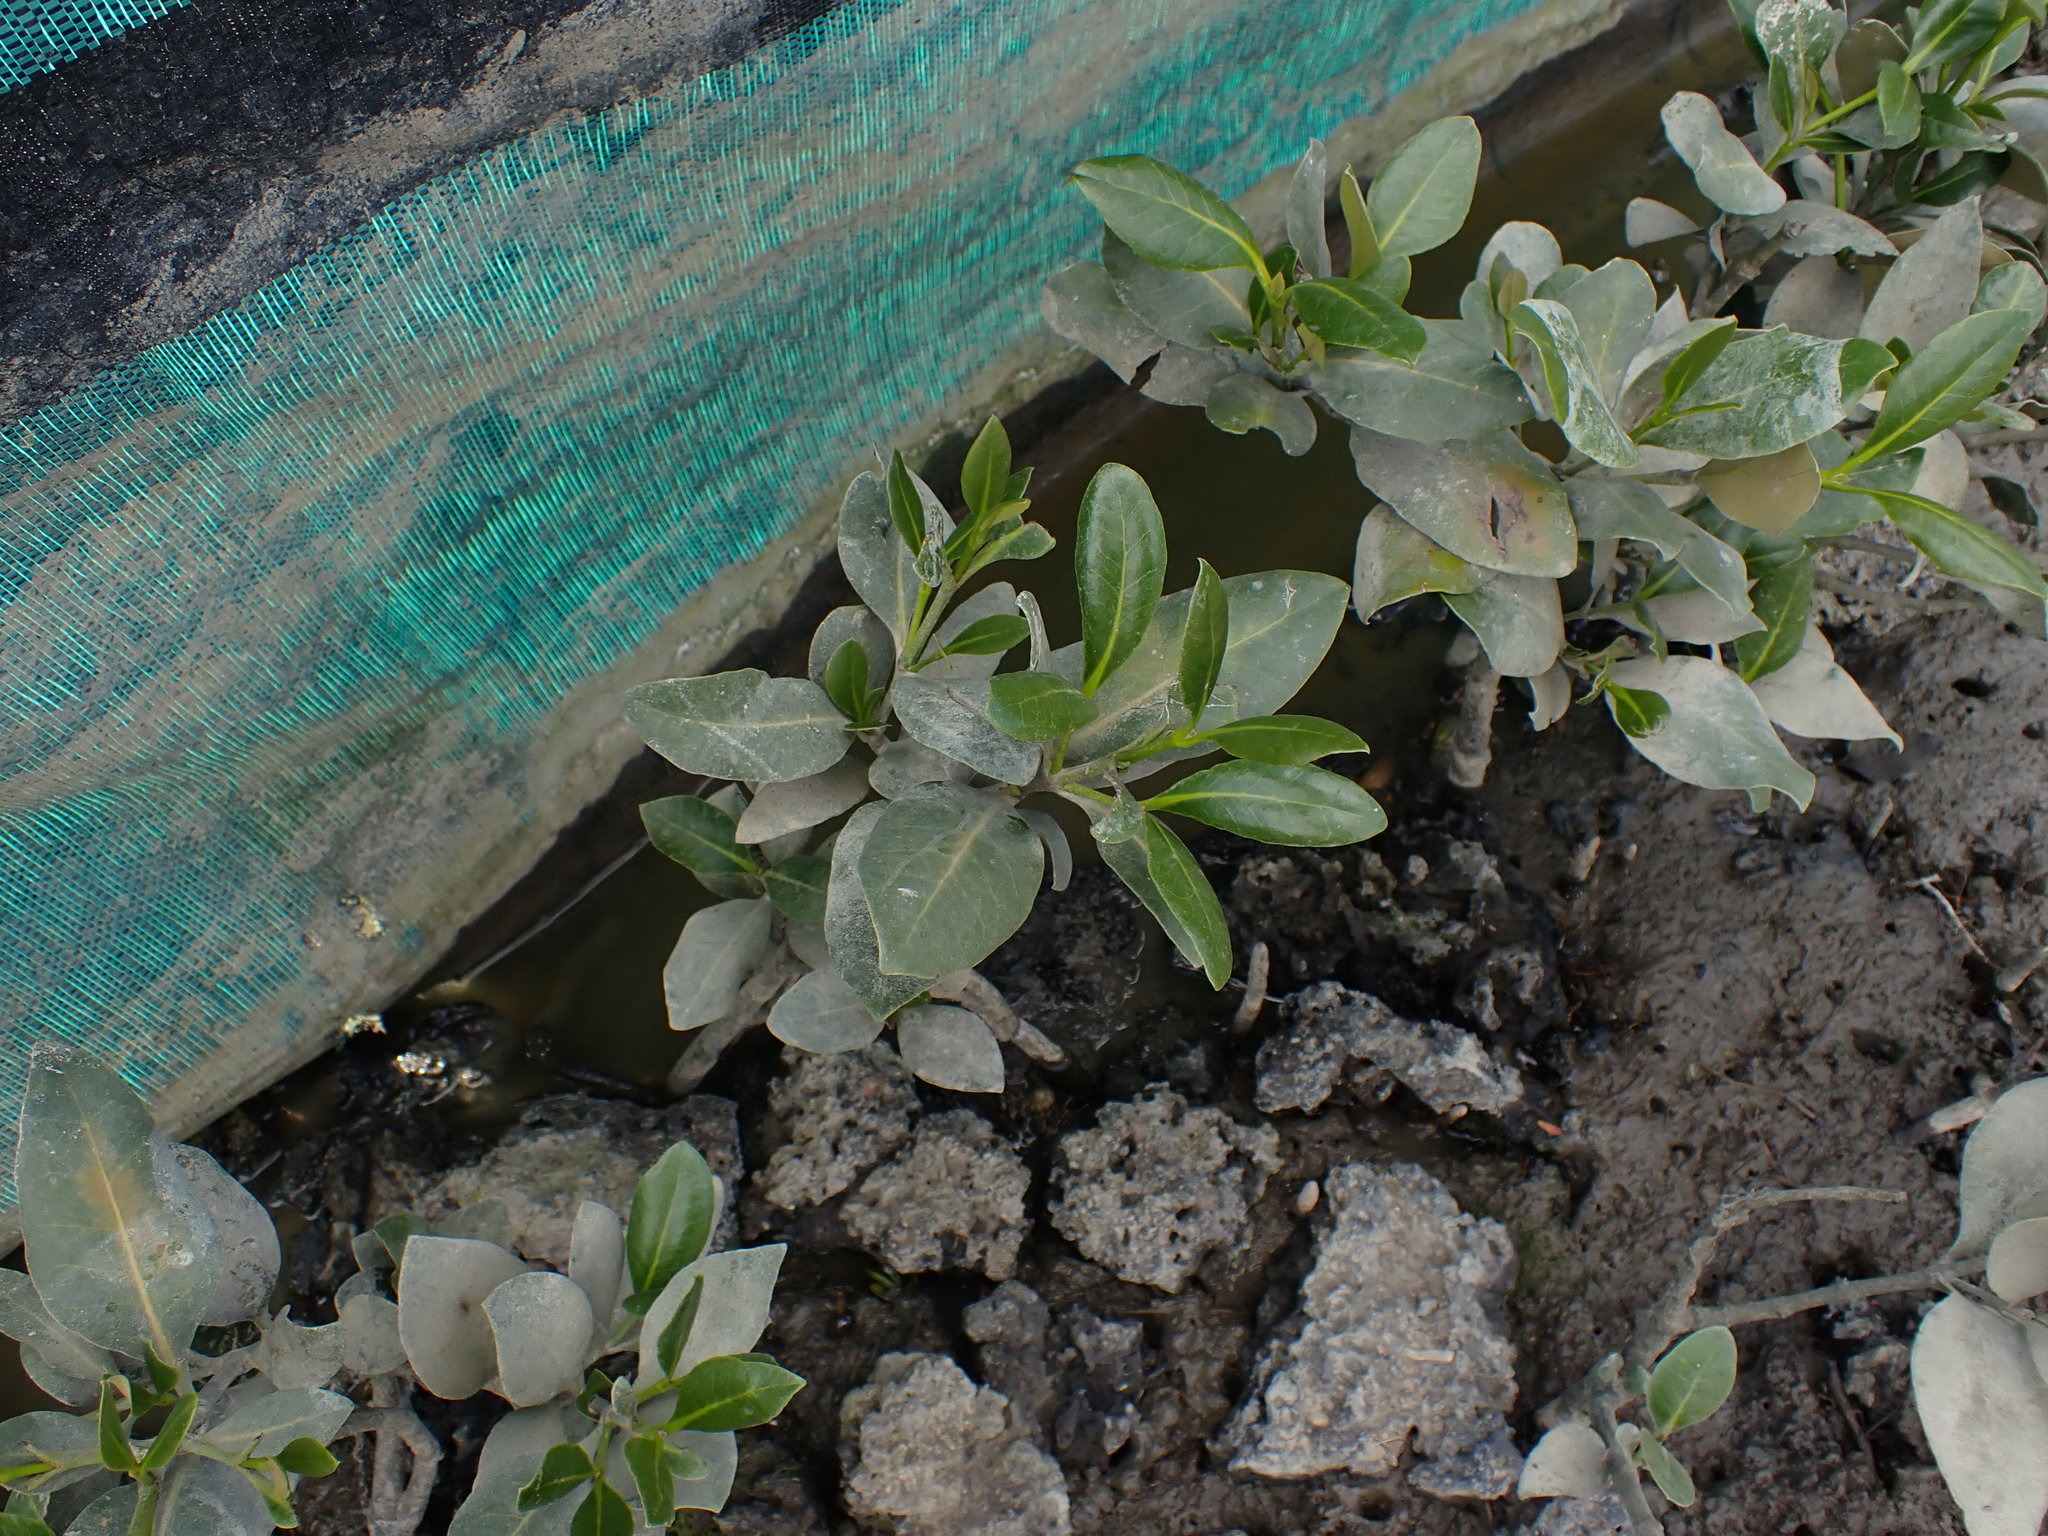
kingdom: Plantae
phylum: Tracheophyta
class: Magnoliopsida
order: Lamiales
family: Acanthaceae
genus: Avicennia
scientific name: Avicennia marina
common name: Gray mangrove
